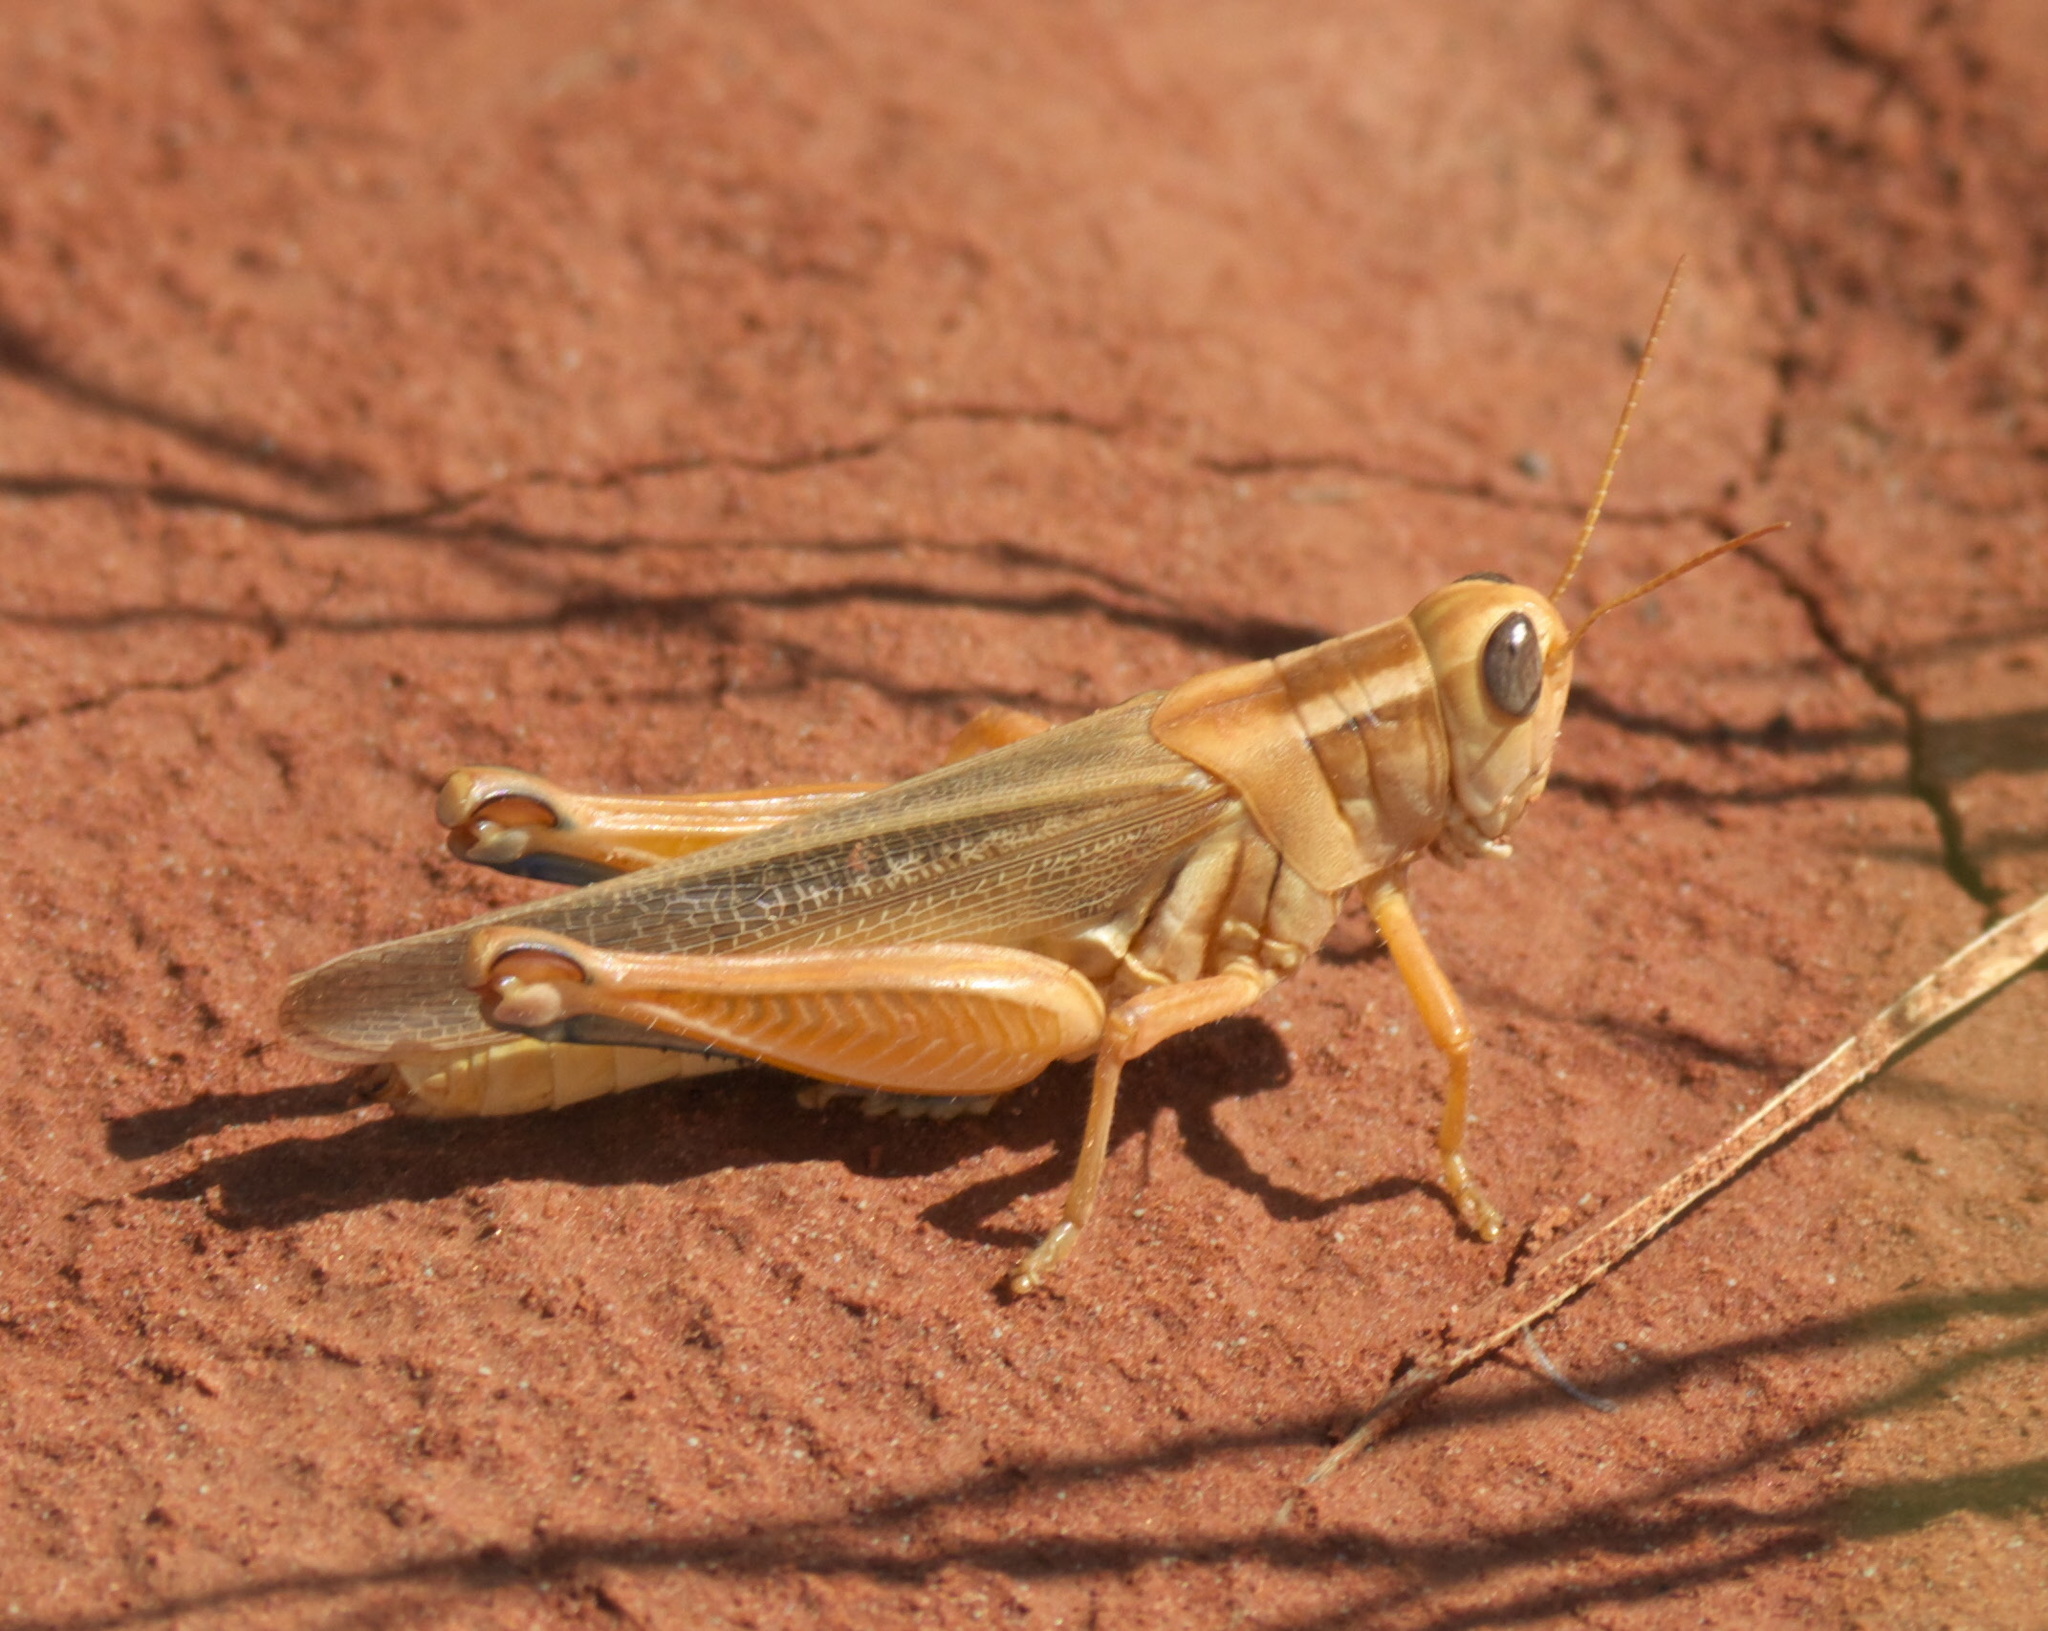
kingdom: Animalia
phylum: Arthropoda
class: Insecta
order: Orthoptera
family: Acrididae
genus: Melanoplus
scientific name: Melanoplus packardii
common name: Packard's grasshopper
